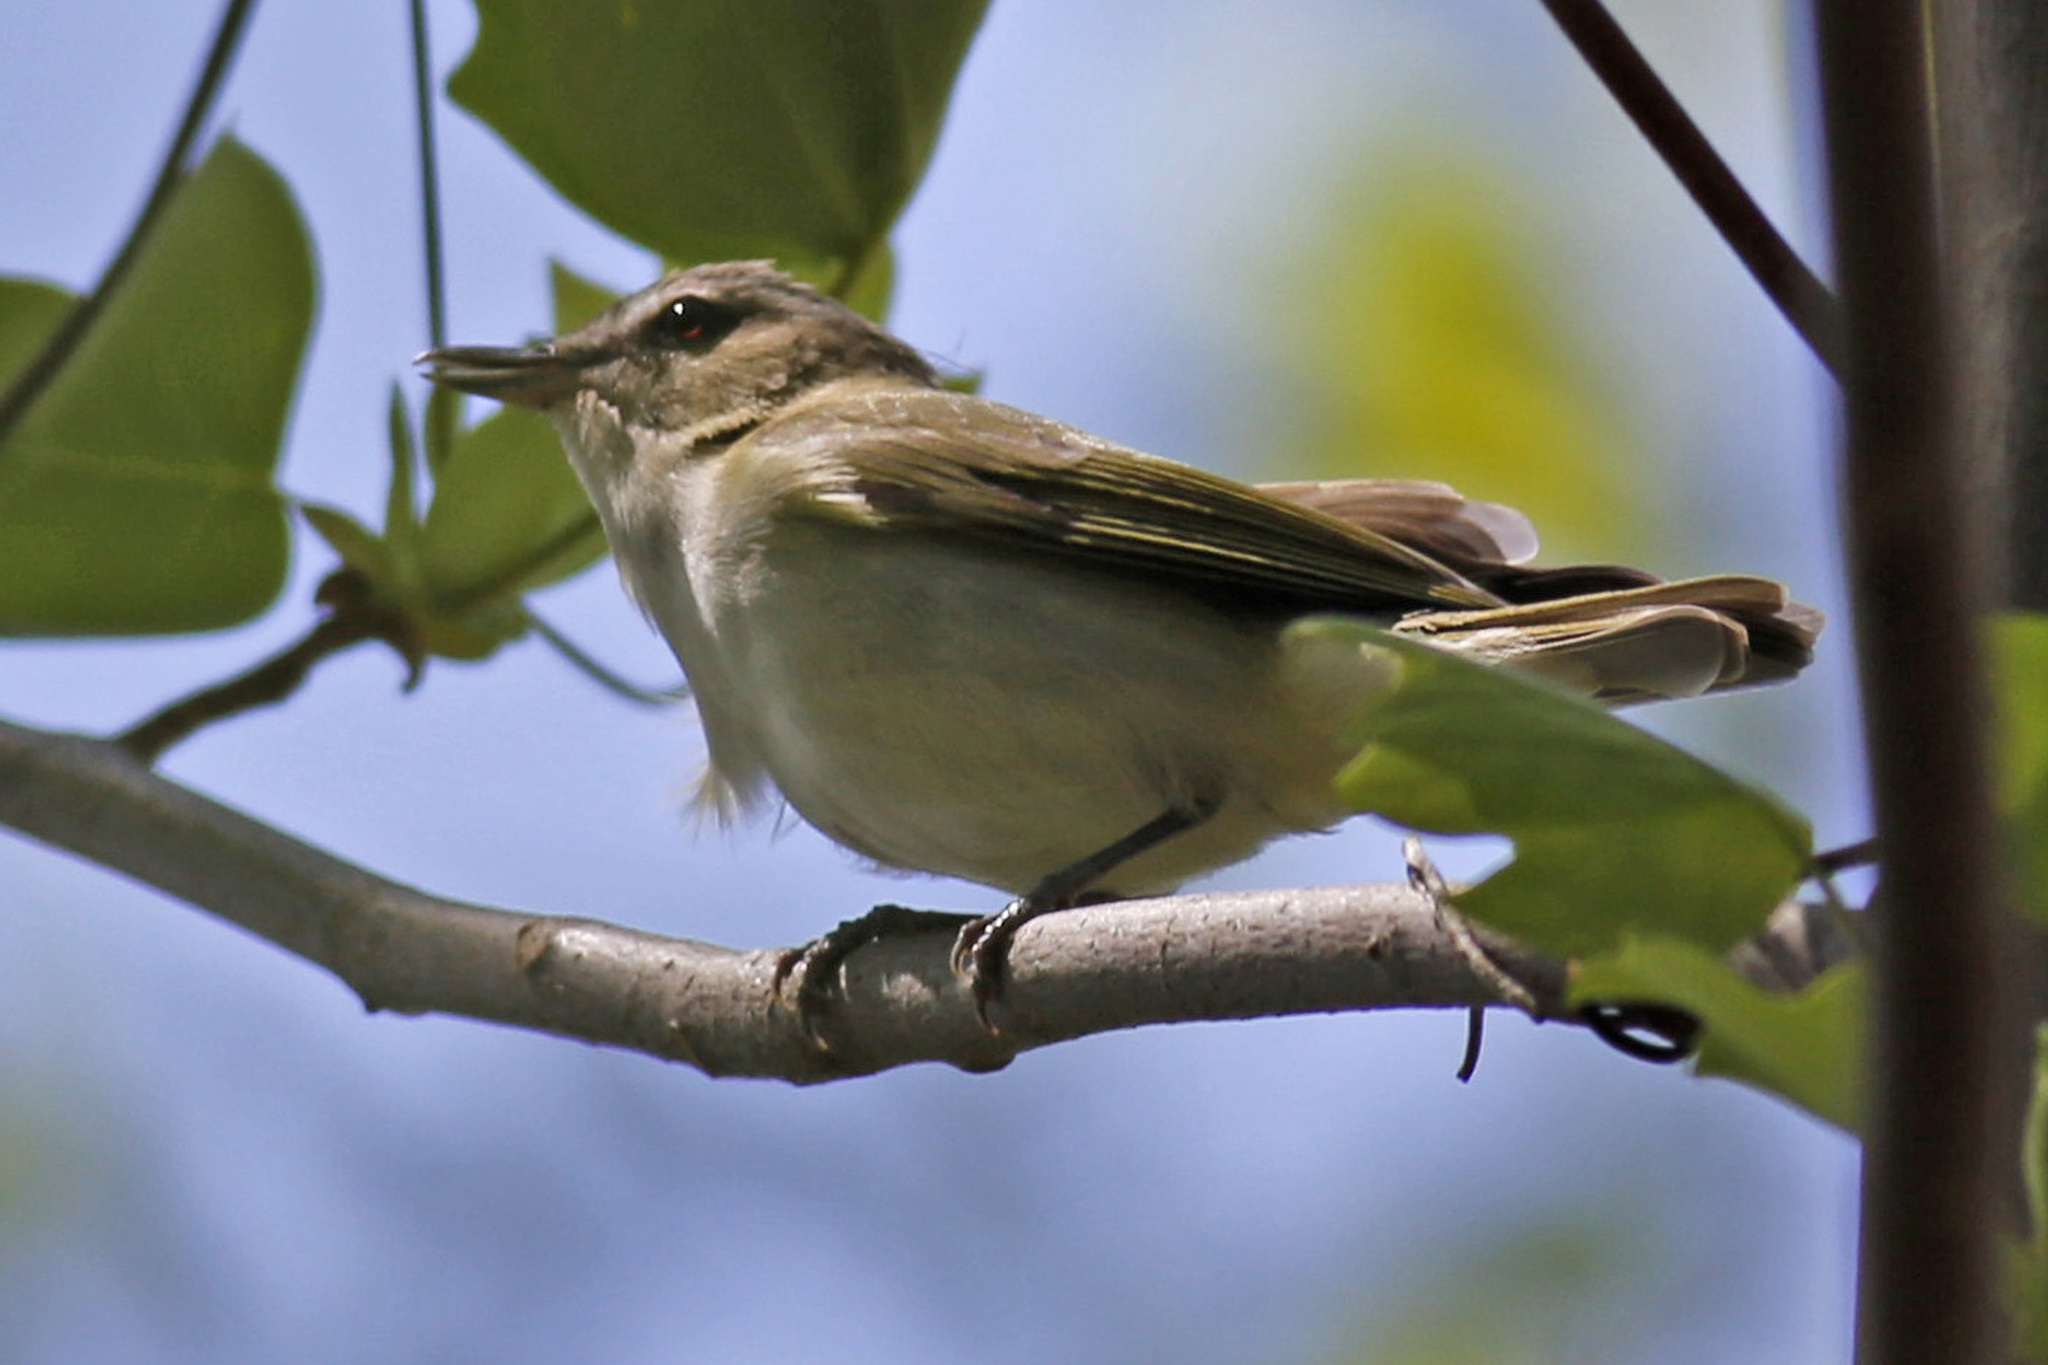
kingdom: Animalia
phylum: Chordata
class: Aves
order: Passeriformes
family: Vireonidae
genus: Vireo
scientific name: Vireo olivaceus
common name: Red-eyed vireo
